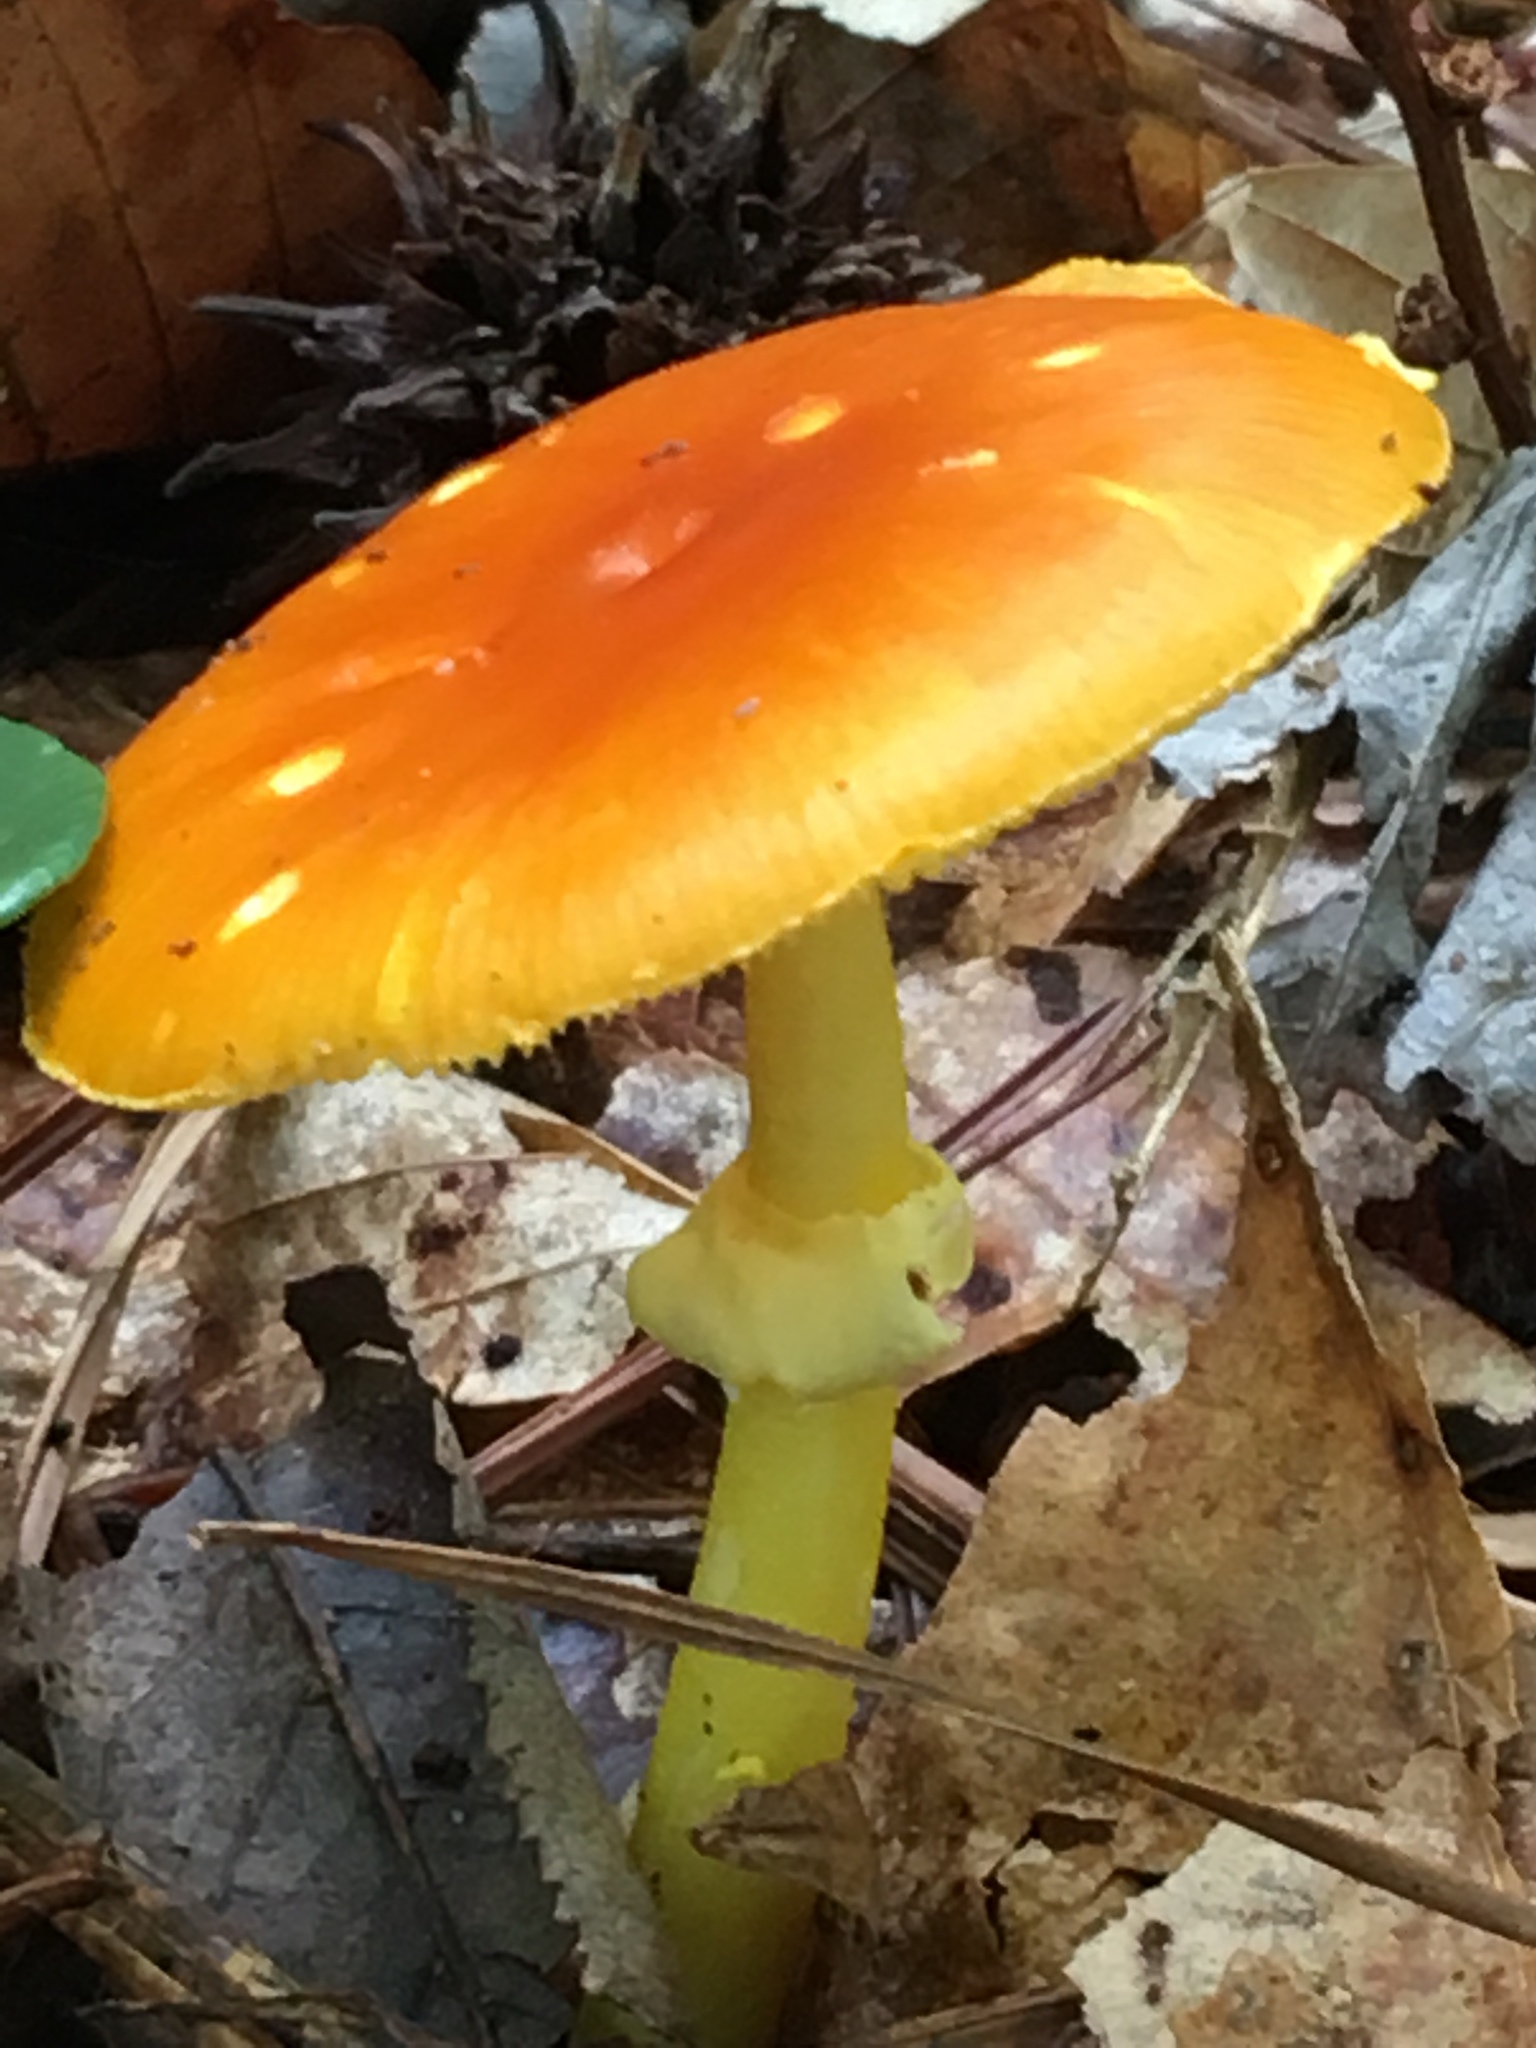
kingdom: Fungi
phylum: Basidiomycota
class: Agaricomycetes
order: Agaricales
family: Amanitaceae
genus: Amanita
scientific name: Amanita flavoconia
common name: Yellow patches
